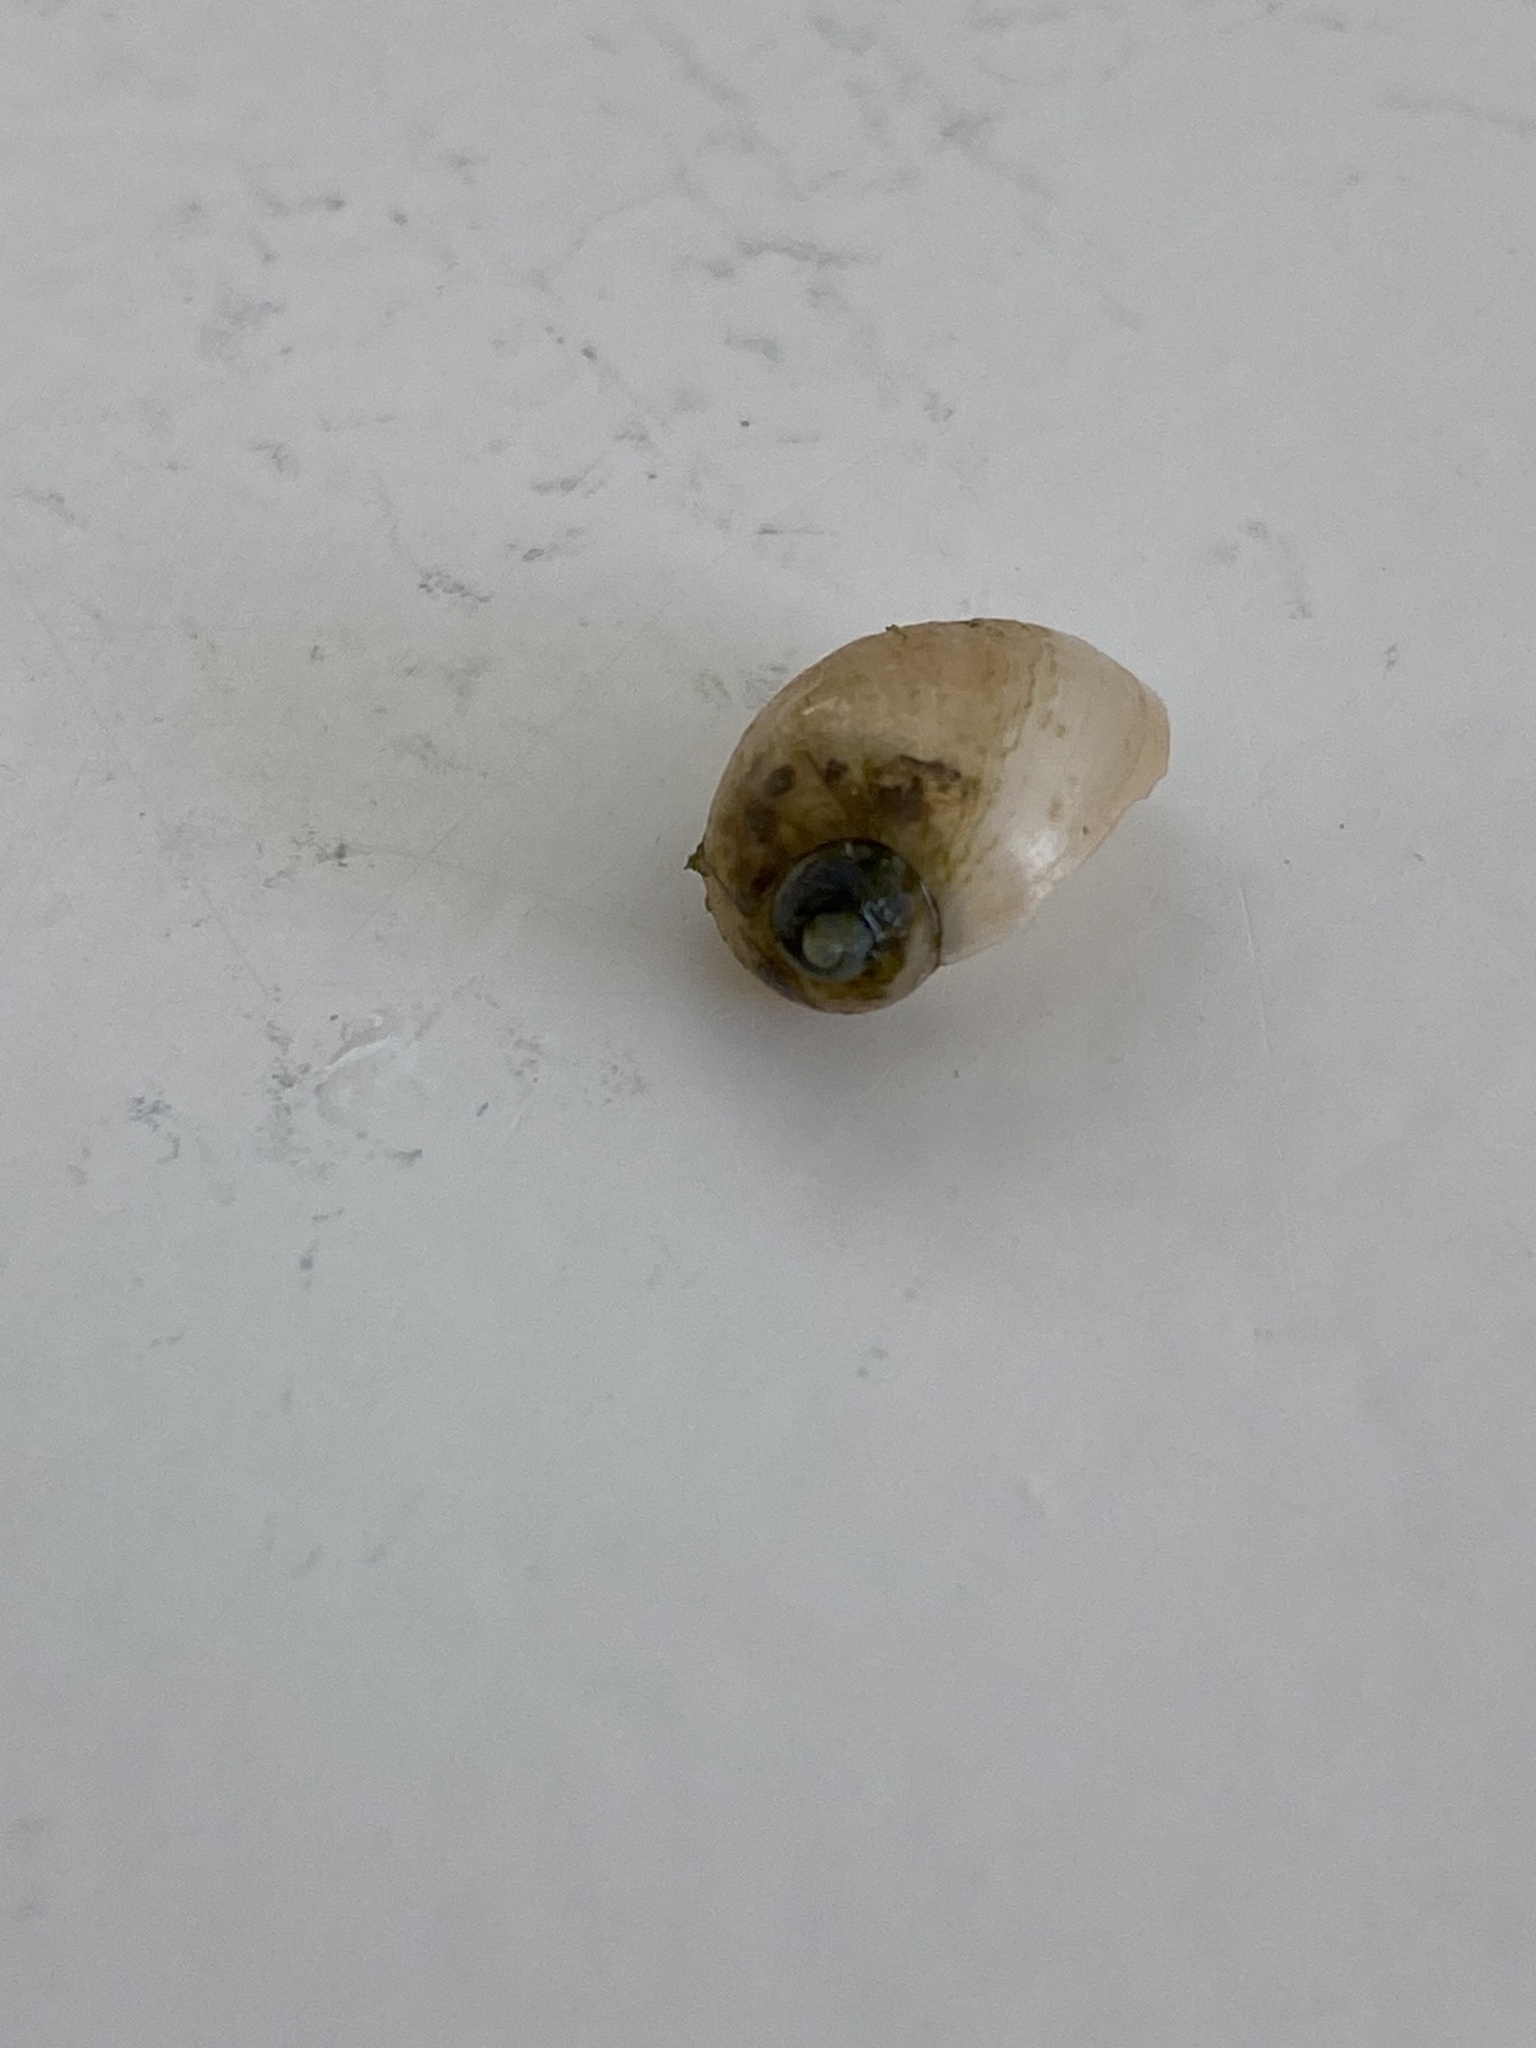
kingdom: Animalia
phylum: Mollusca
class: Gastropoda
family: Lymnaeidae
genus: Ampullaceana
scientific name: Ampullaceana balthica
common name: Wandering pond snail
